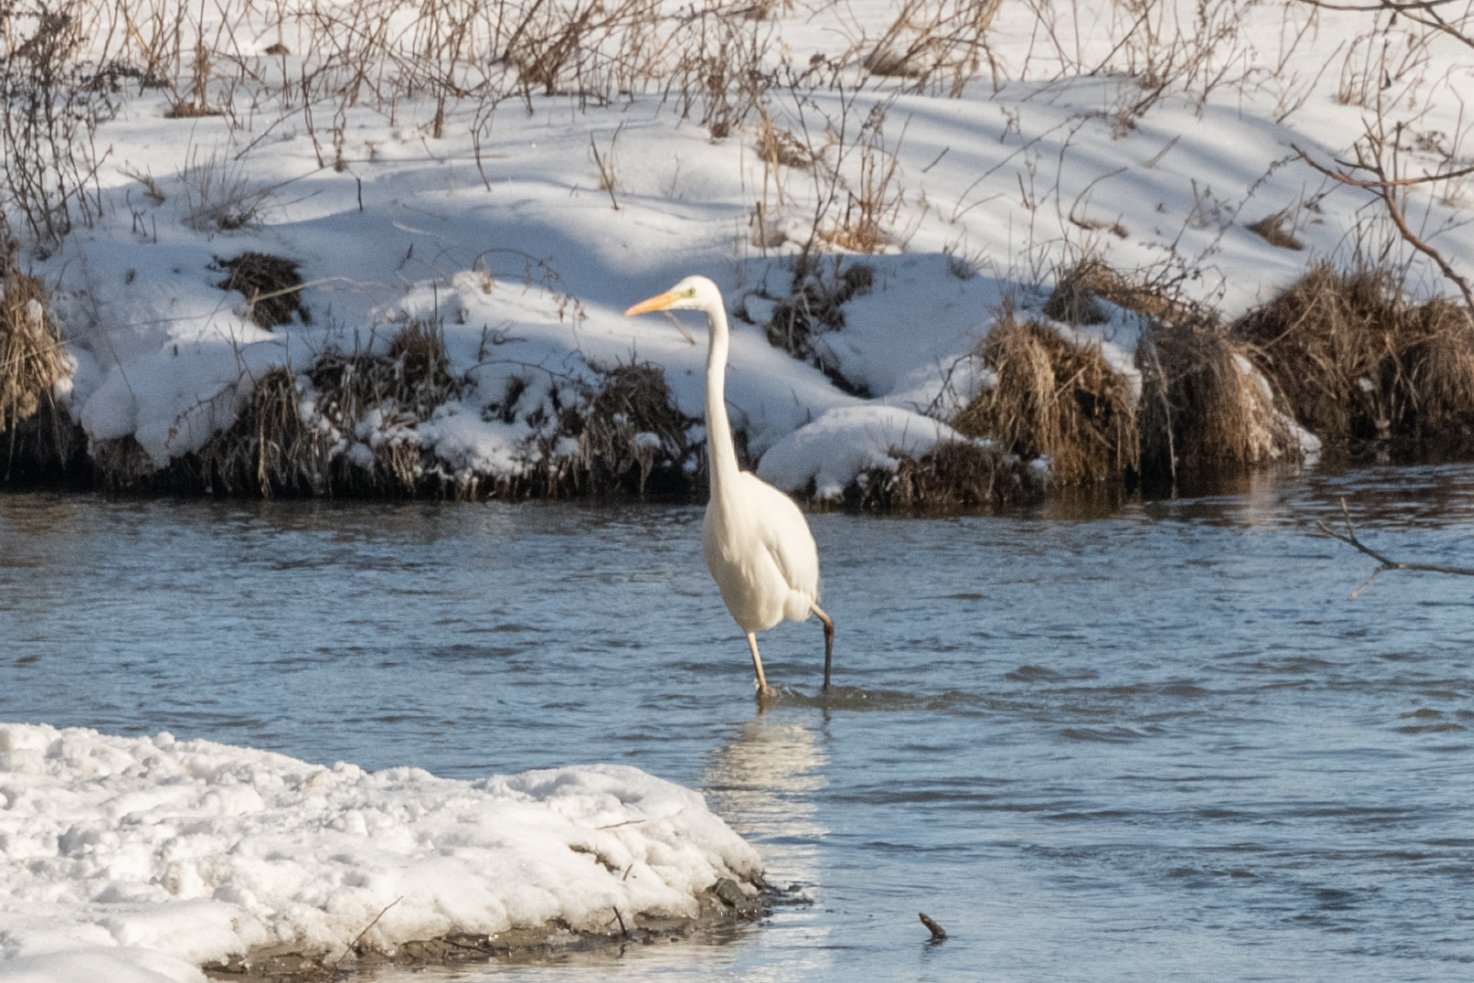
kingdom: Animalia
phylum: Chordata
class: Aves
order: Pelecaniformes
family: Ardeidae
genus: Ardea
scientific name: Ardea alba
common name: Great egret
